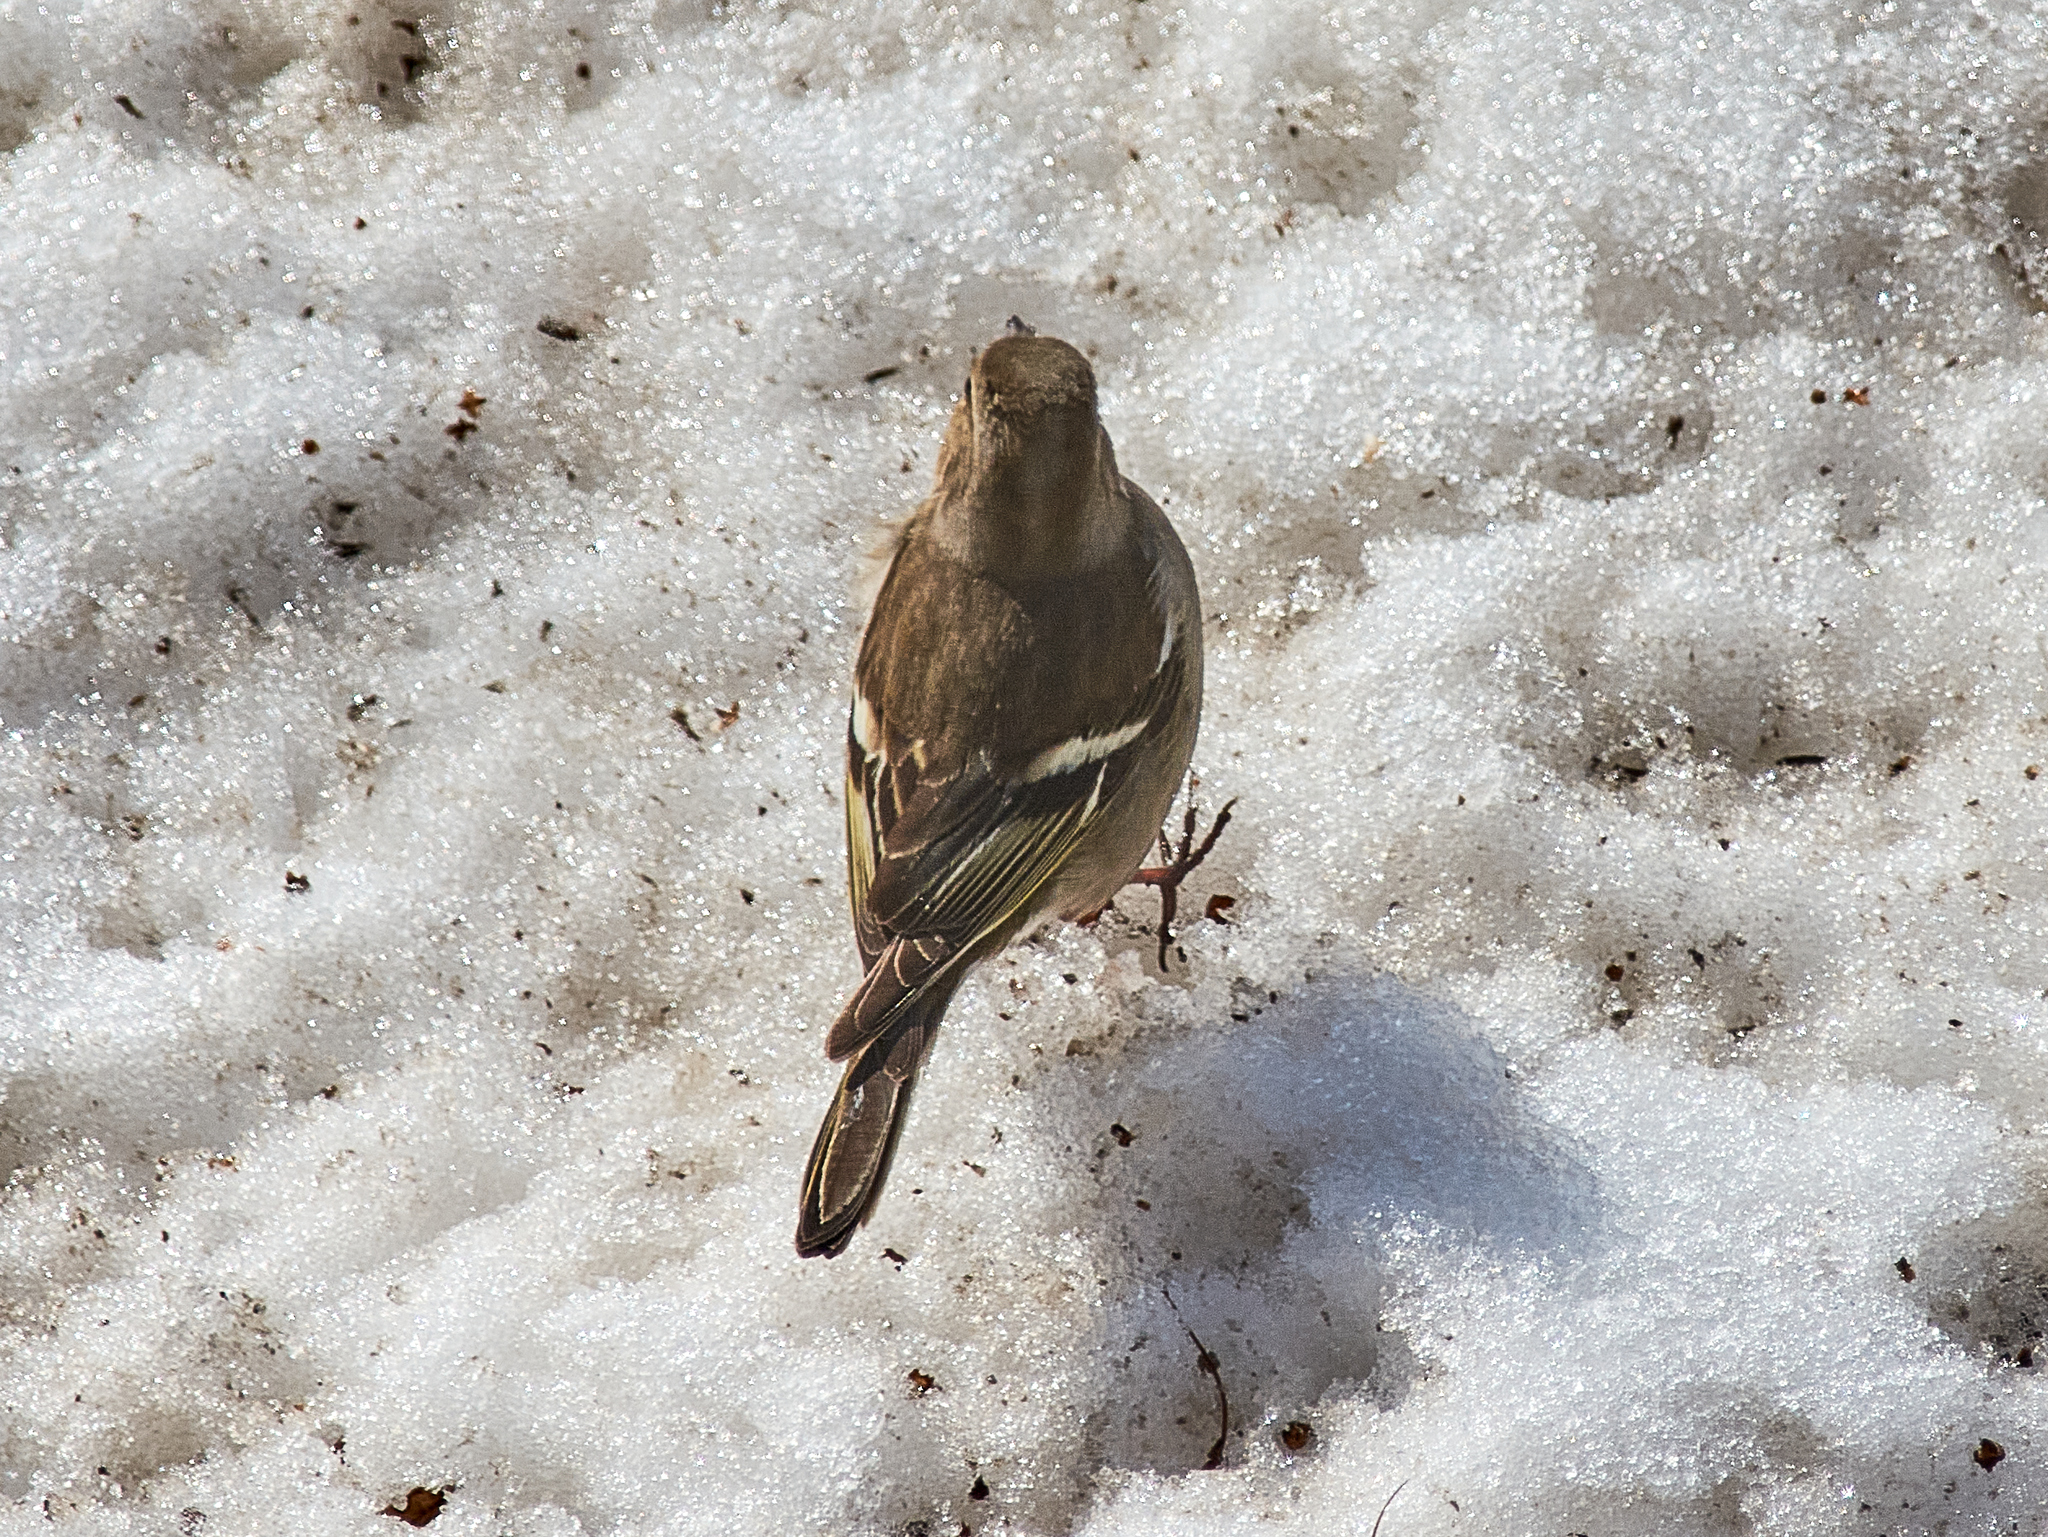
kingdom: Animalia
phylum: Chordata
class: Aves
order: Passeriformes
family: Fringillidae
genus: Fringilla
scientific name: Fringilla coelebs
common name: Common chaffinch
